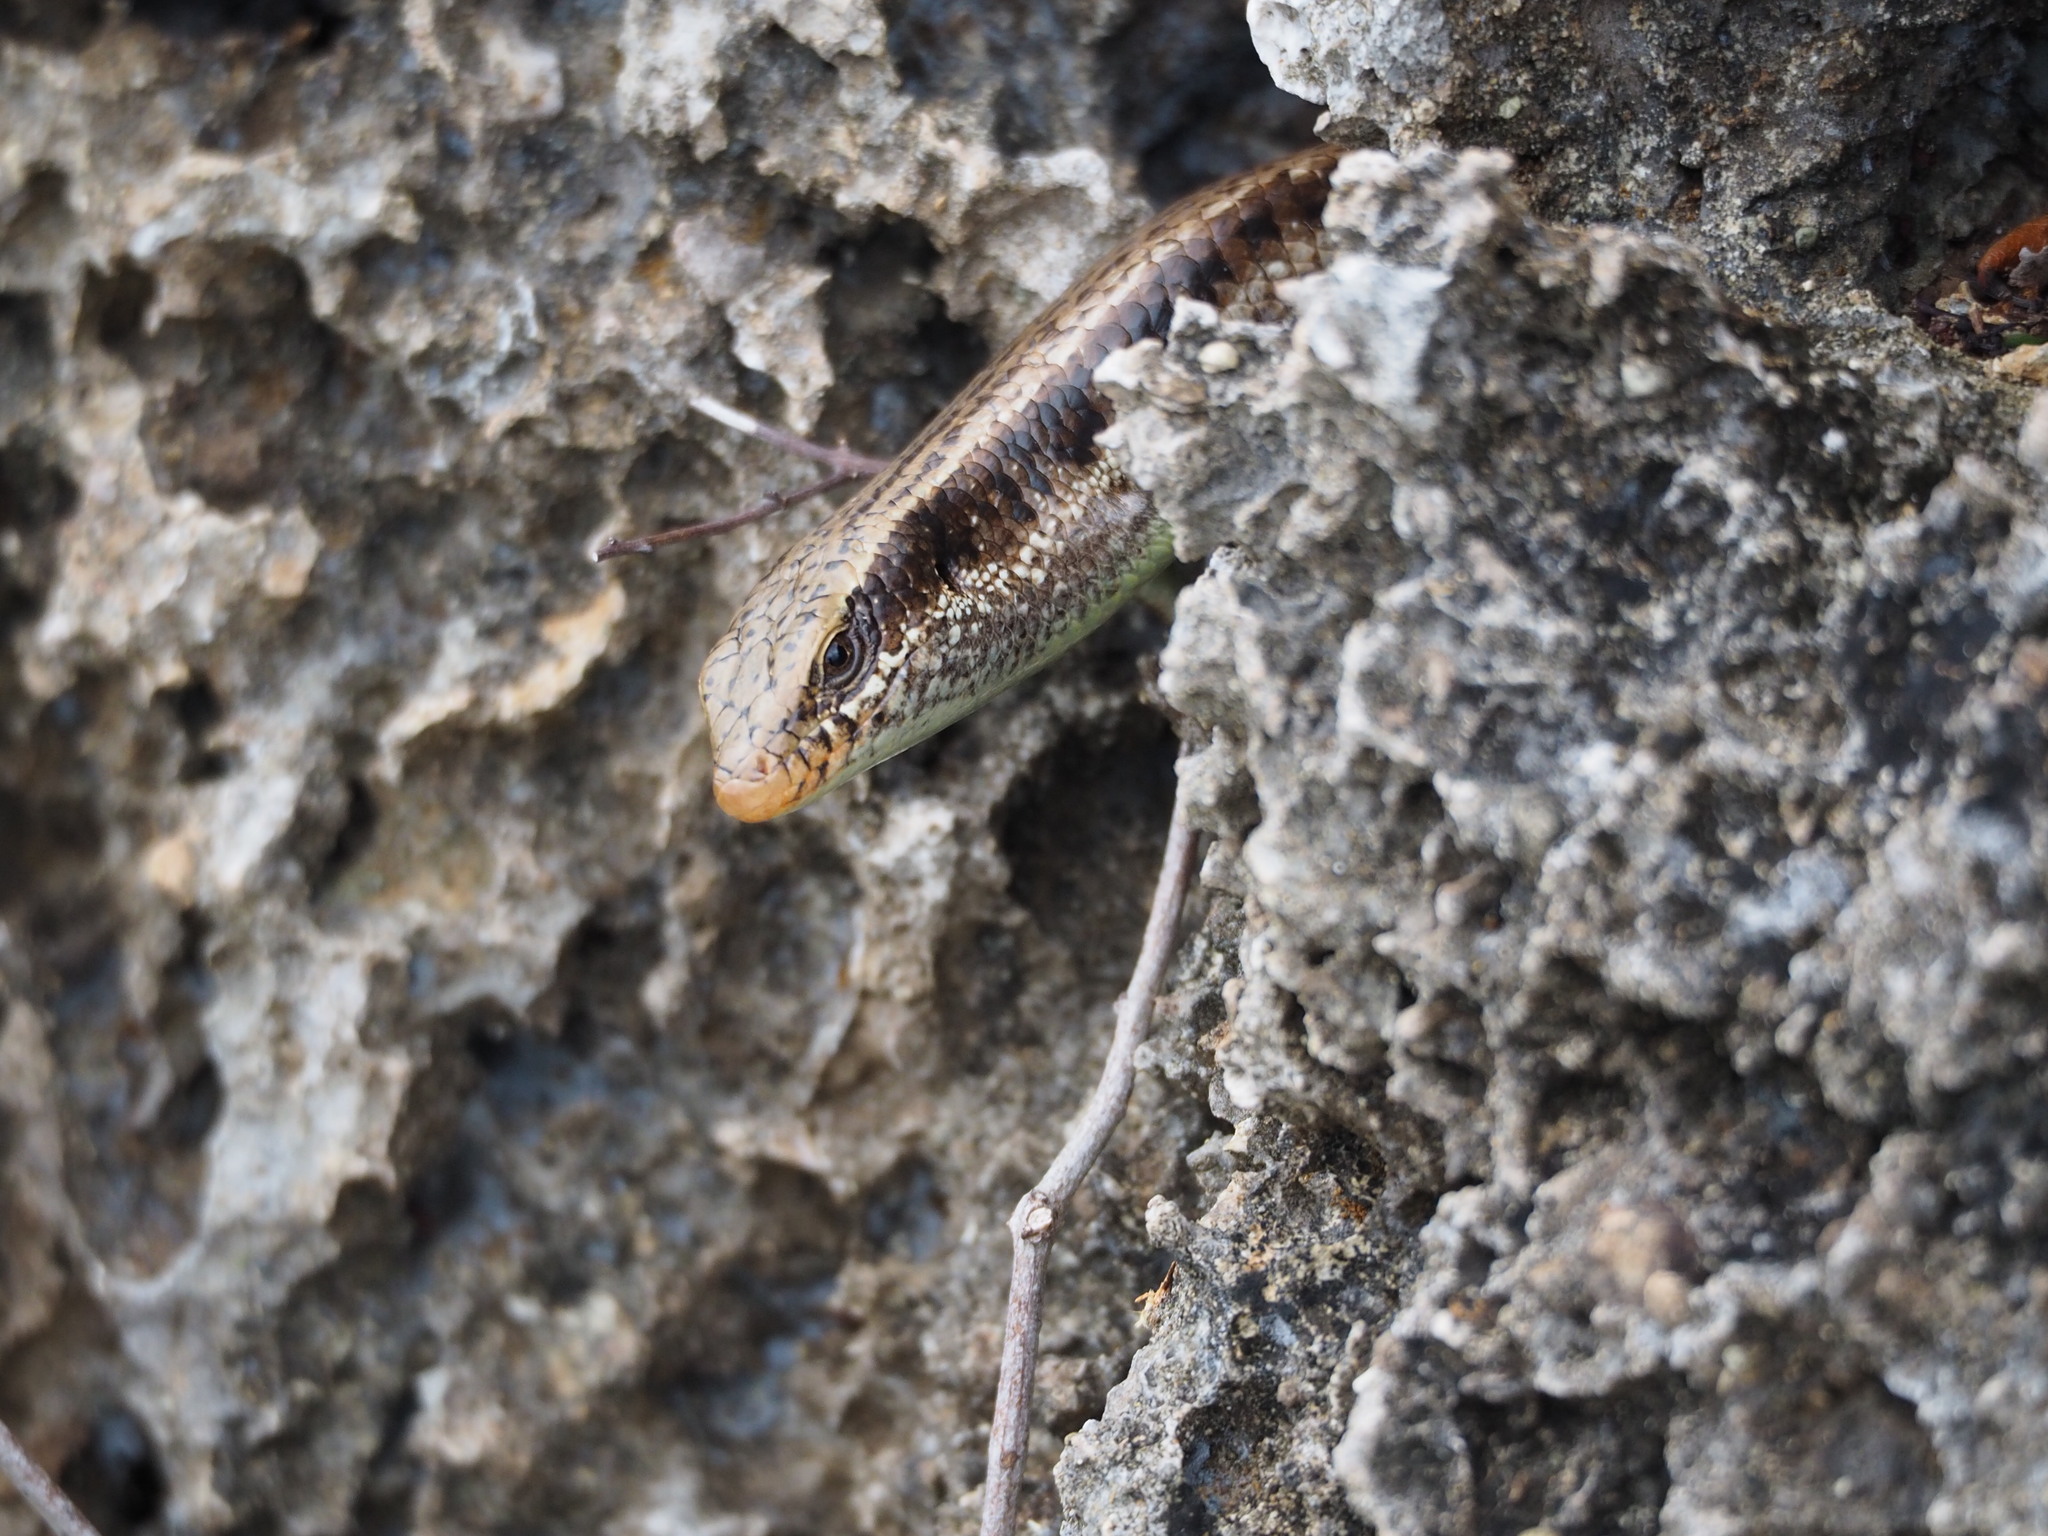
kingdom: Animalia
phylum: Chordata
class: Squamata
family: Scincidae
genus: Eutropis
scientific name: Eutropis longicaudata
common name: Long-tailed sun skink
